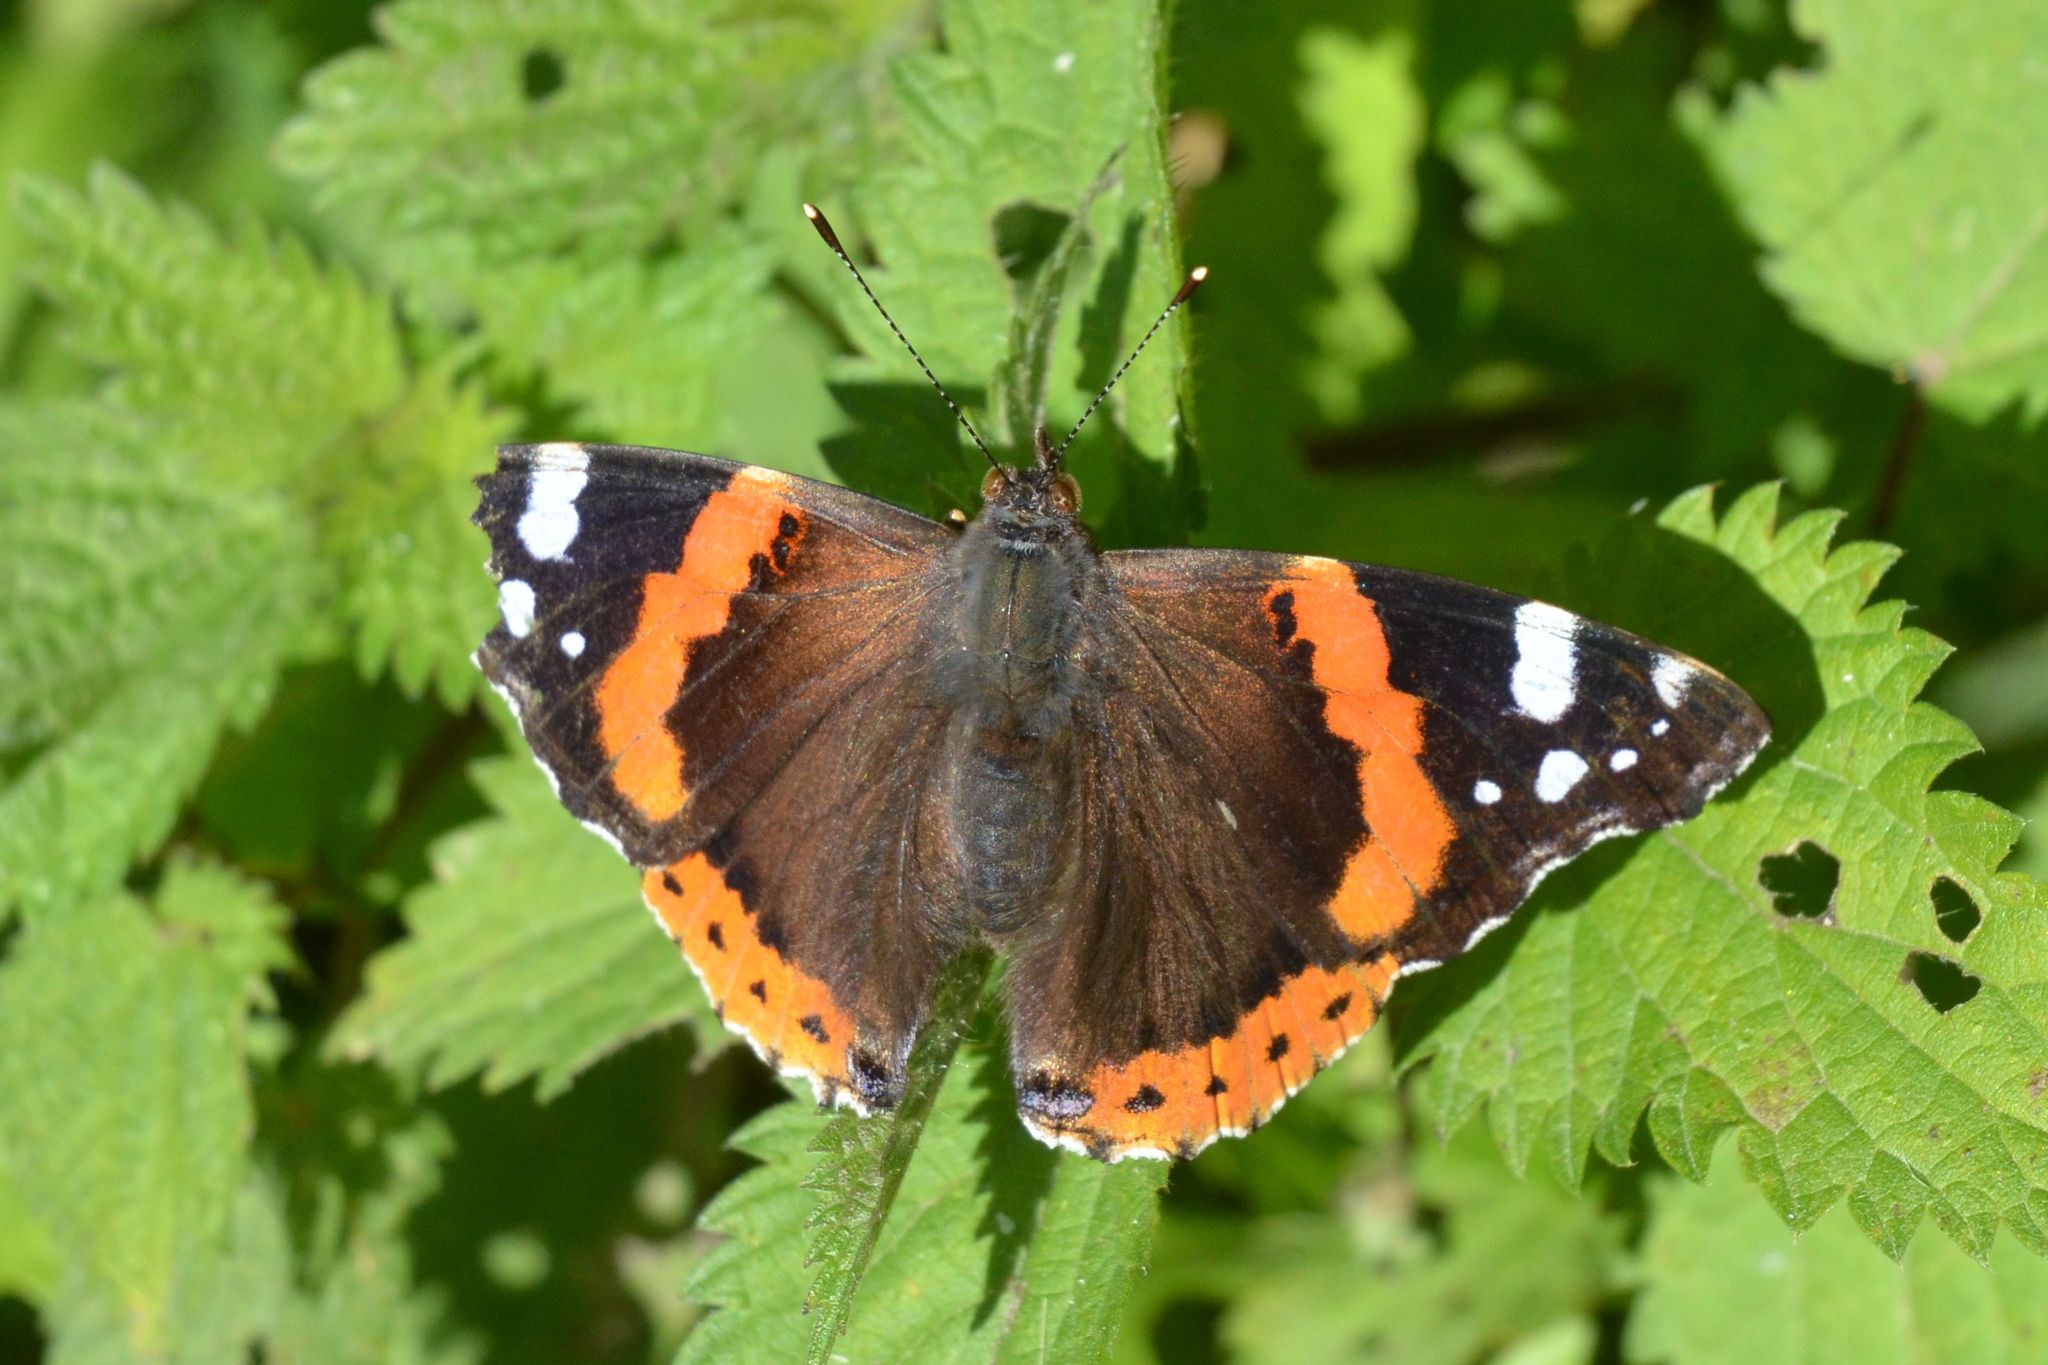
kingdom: Animalia
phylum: Arthropoda
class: Insecta
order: Lepidoptera
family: Nymphalidae
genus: Vanessa
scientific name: Vanessa atalanta
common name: Red admiral
